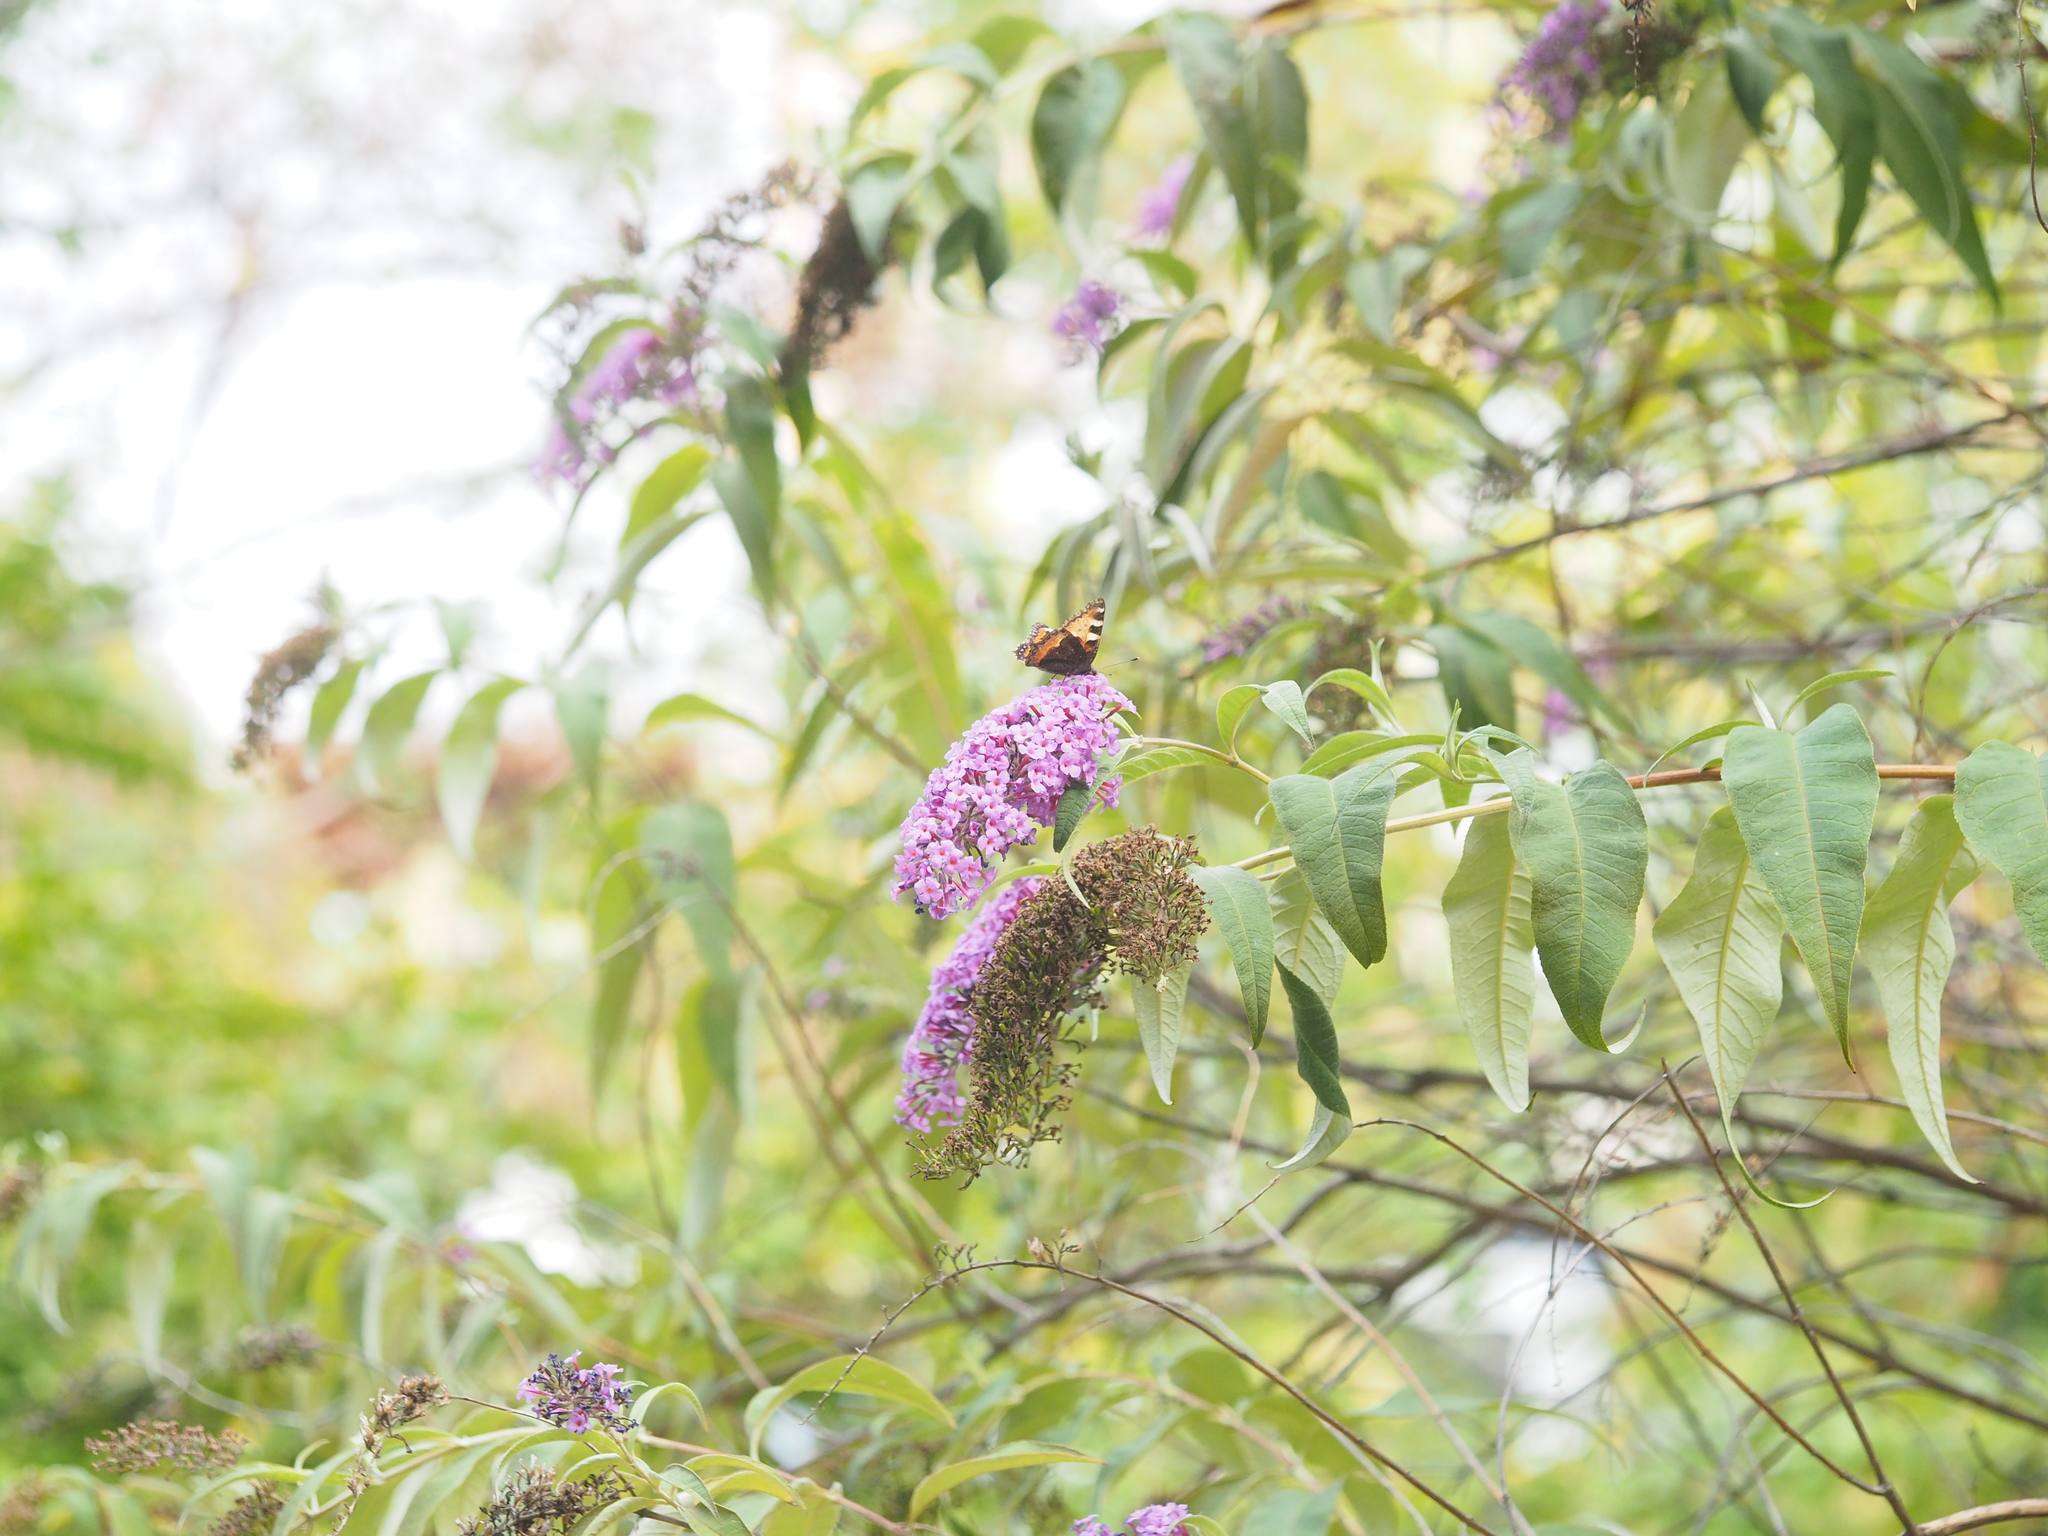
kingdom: Animalia
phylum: Arthropoda
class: Insecta
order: Lepidoptera
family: Nymphalidae
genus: Aglais
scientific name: Aglais urticae
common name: Small tortoiseshell
